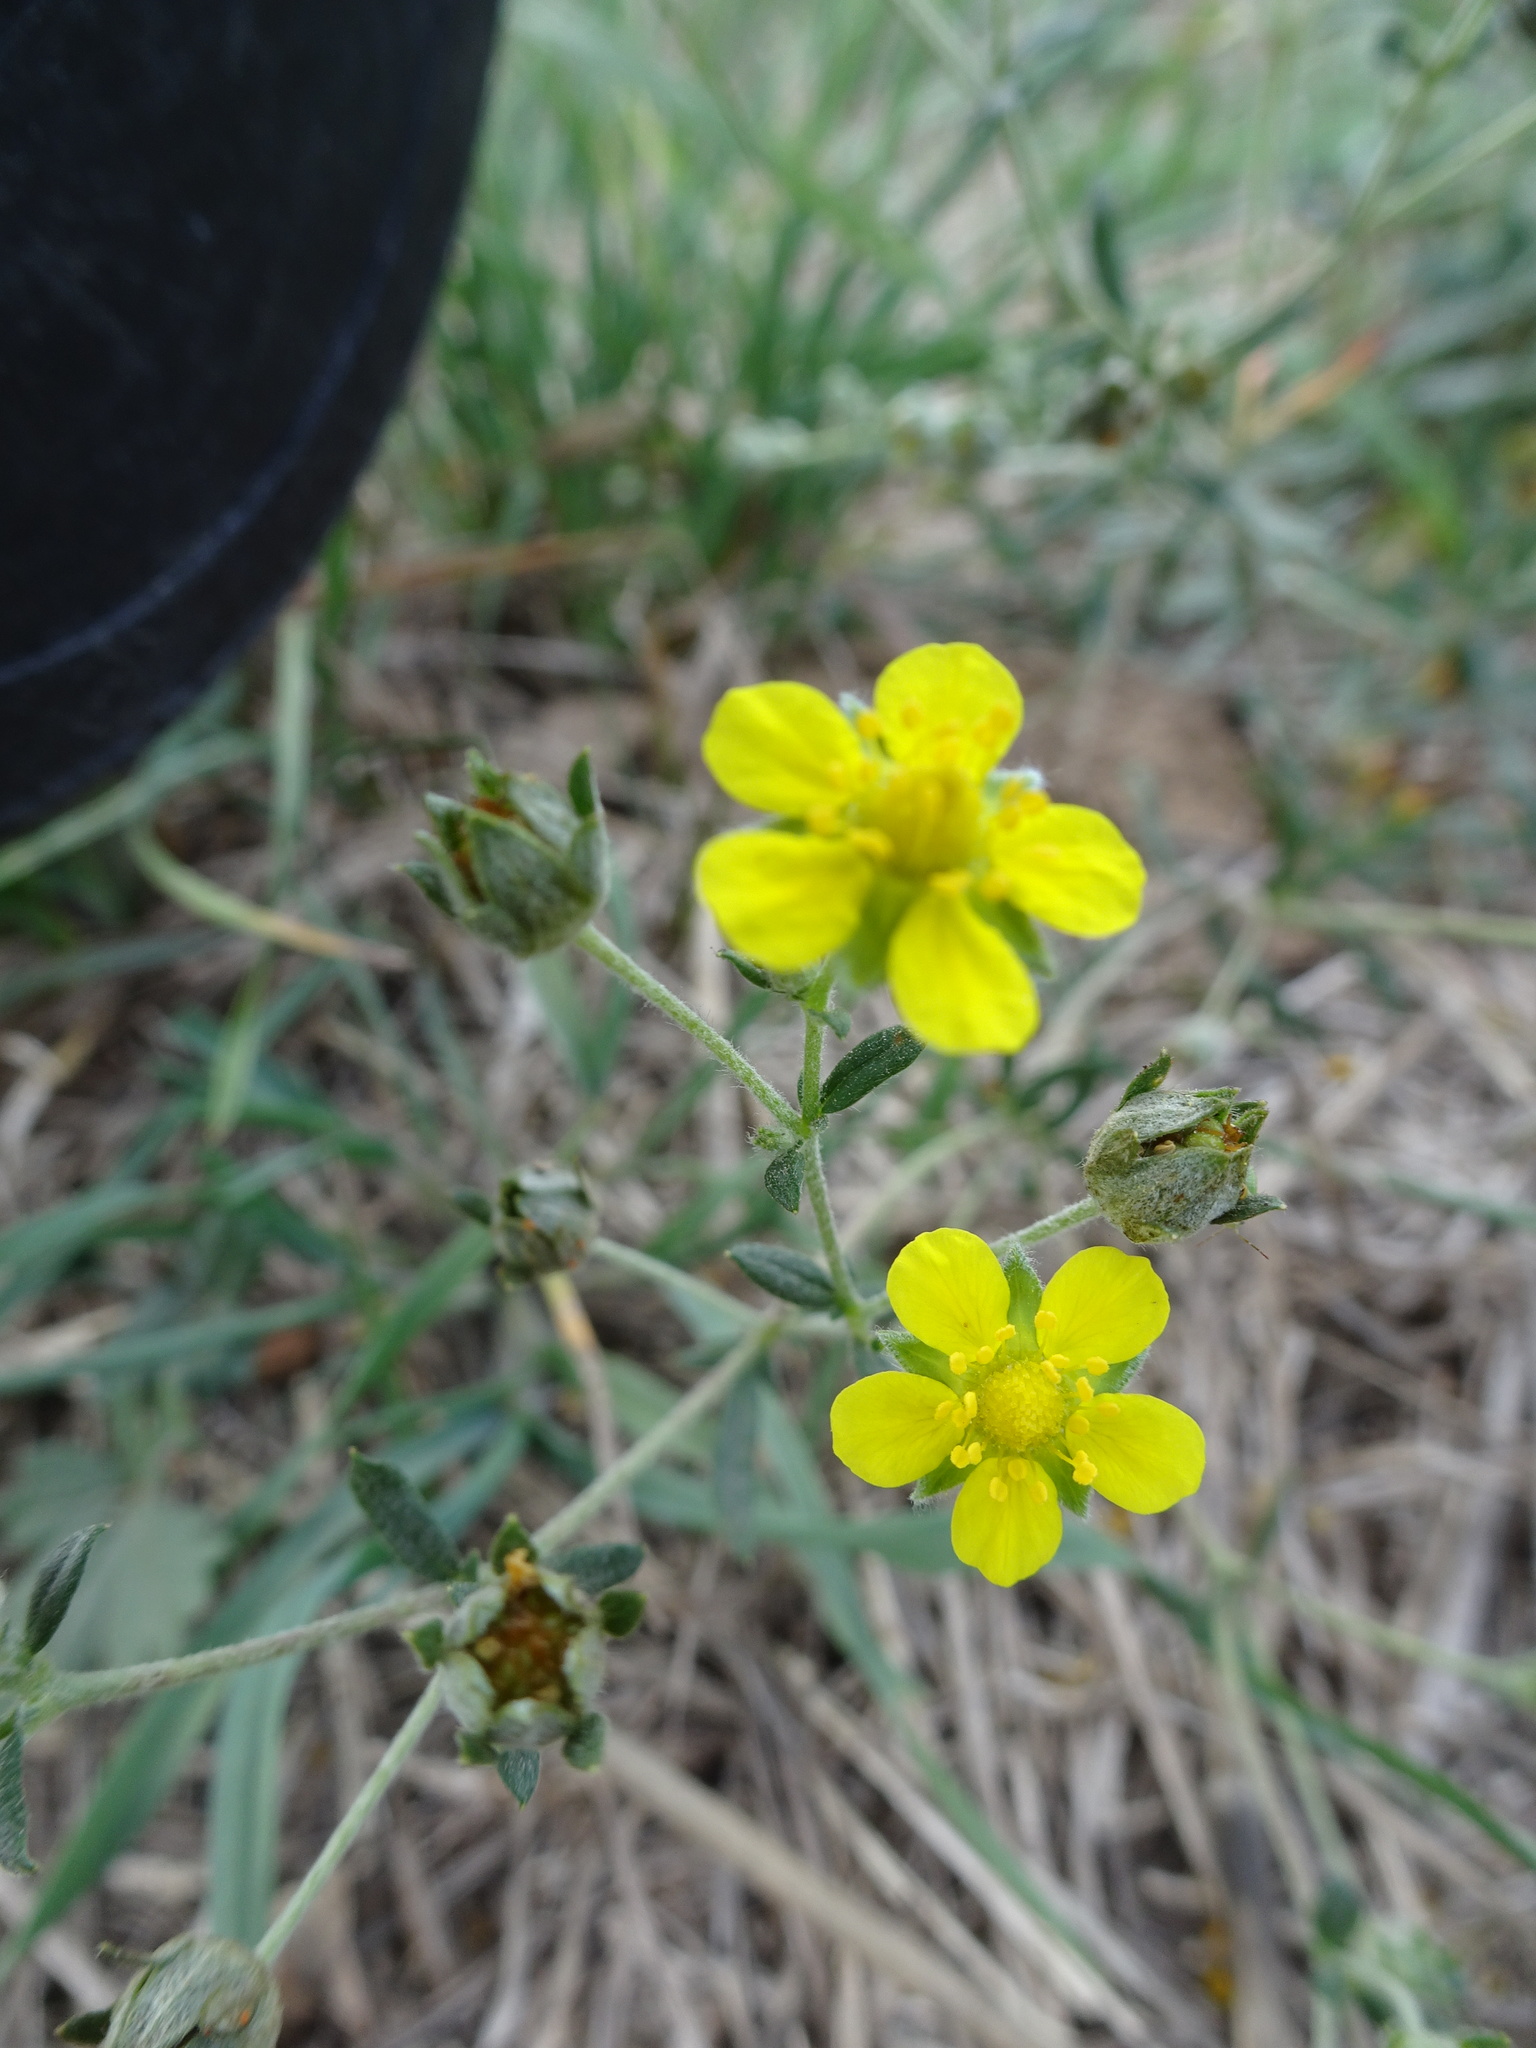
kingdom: Plantae
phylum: Tracheophyta
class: Magnoliopsida
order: Rosales
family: Rosaceae
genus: Potentilla
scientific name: Potentilla argentea
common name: Hoary cinquefoil
